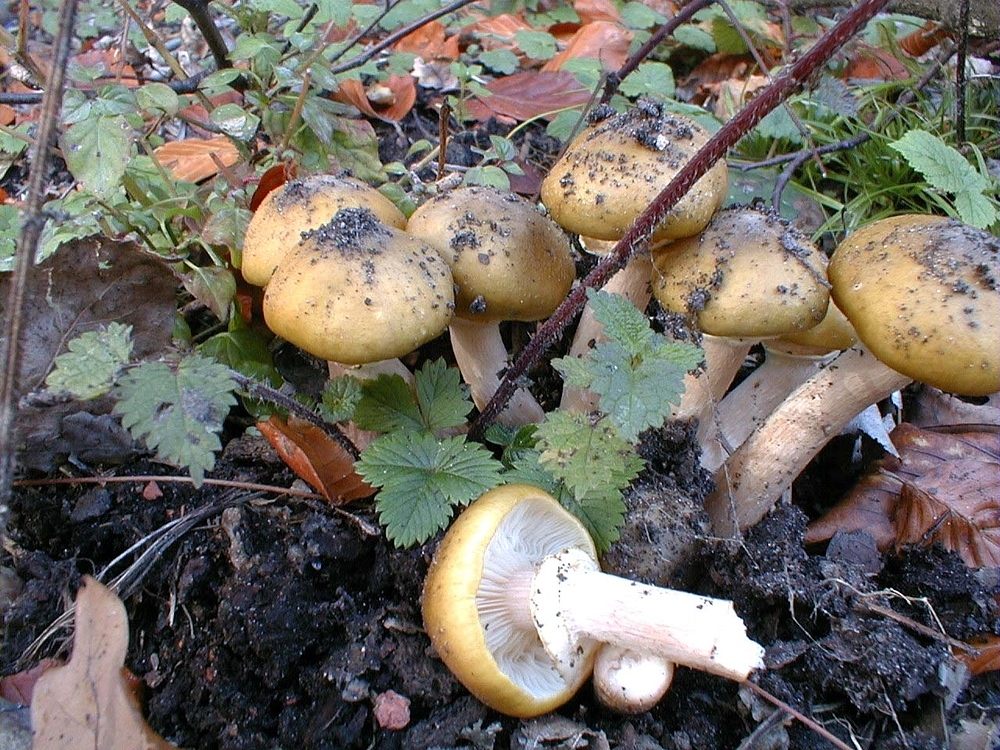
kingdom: Fungi
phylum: Basidiomycota
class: Agaricomycetes
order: Agaricales
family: Physalacriaceae
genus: Armillaria
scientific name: Armillaria mellea
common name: Honey fungus
